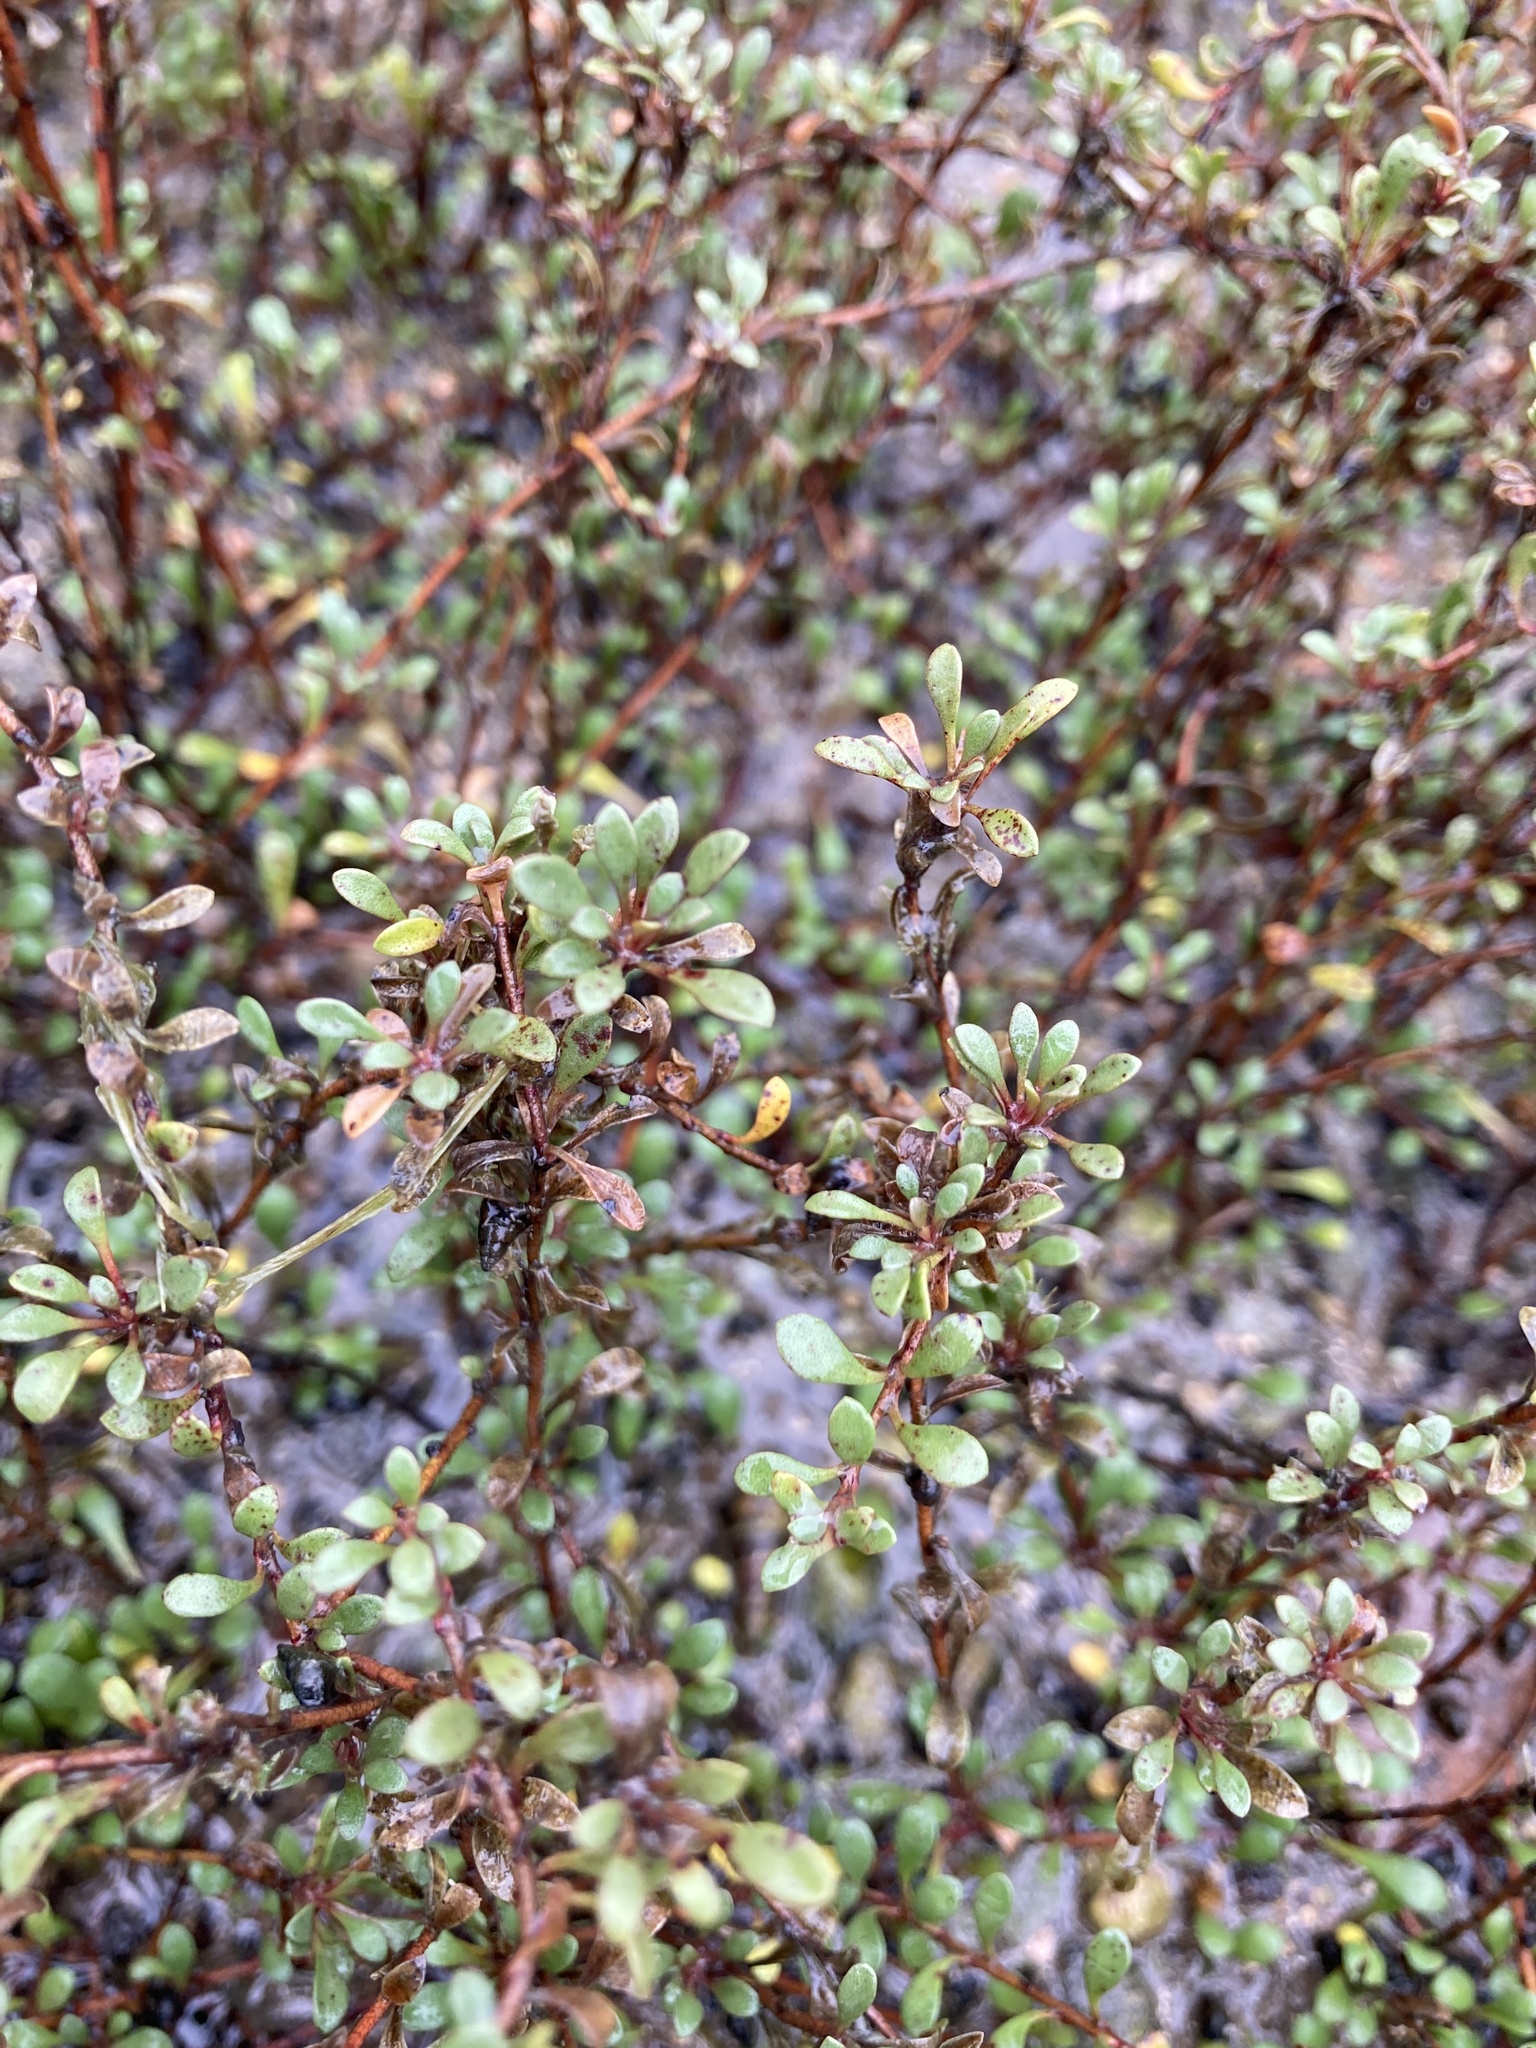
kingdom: Plantae
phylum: Tracheophyta
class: Magnoliopsida
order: Ericales
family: Primulaceae
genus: Samolus
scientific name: Samolus repens
